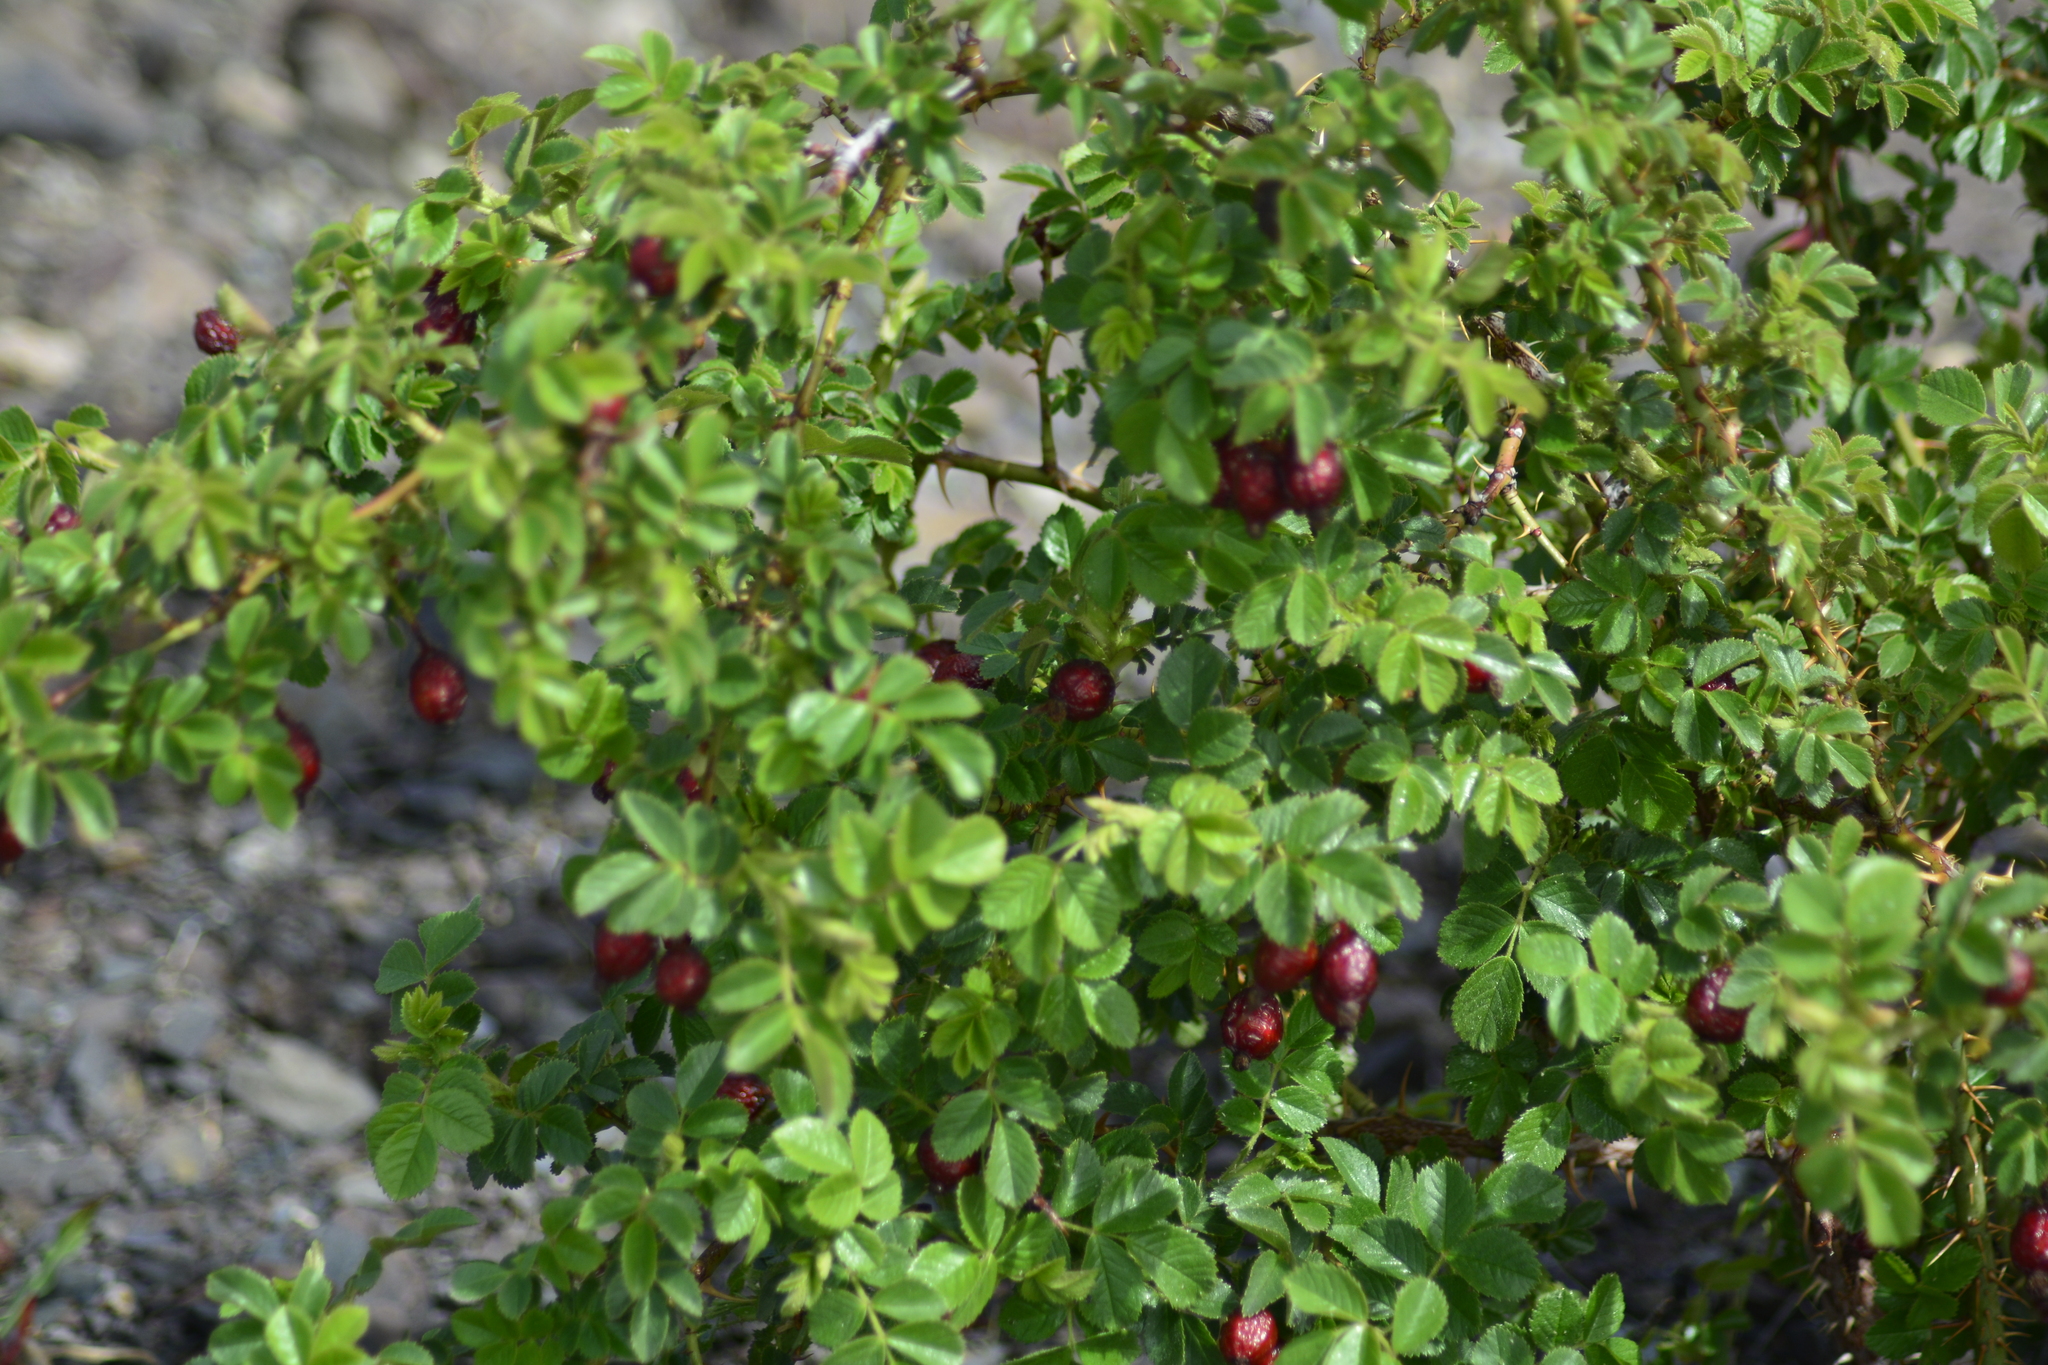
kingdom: Plantae
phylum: Tracheophyta
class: Magnoliopsida
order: Rosales
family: Rosaceae
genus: Rosa
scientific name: Rosa rubiginosa
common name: Sweet-briar
